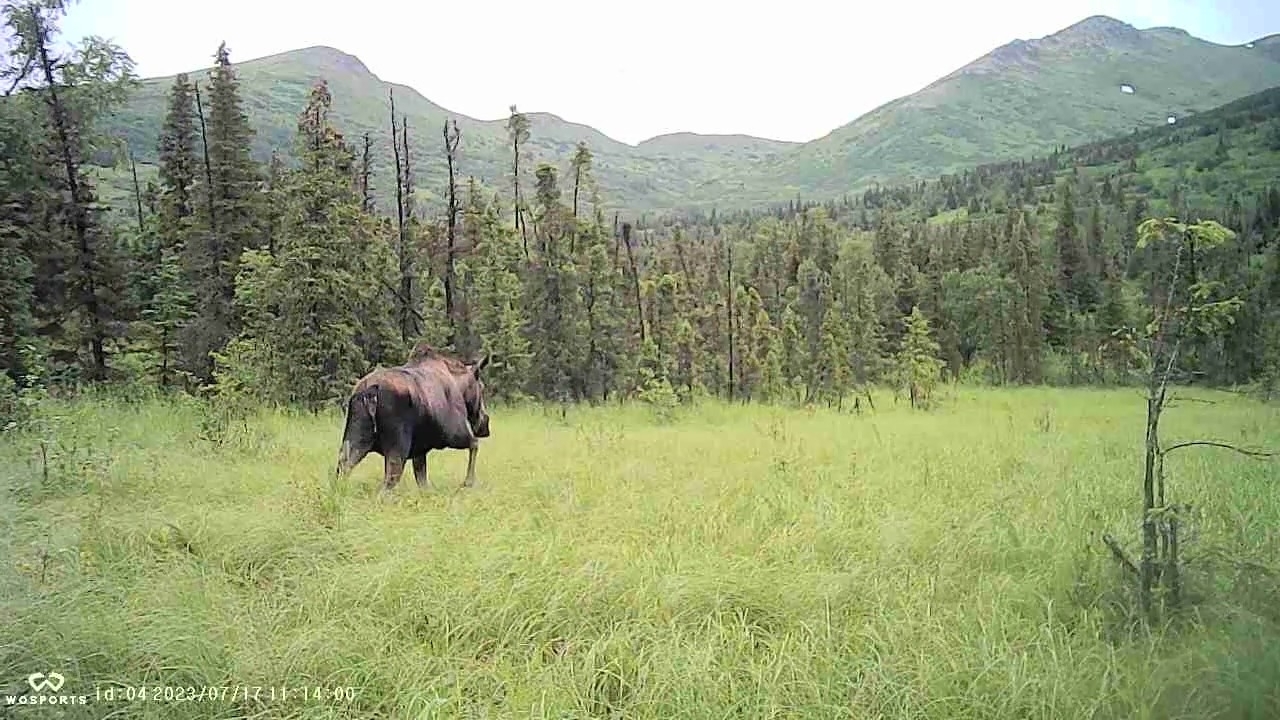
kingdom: Animalia
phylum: Chordata
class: Mammalia
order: Artiodactyla
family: Cervidae
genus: Alces
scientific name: Alces alces
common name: Moose
